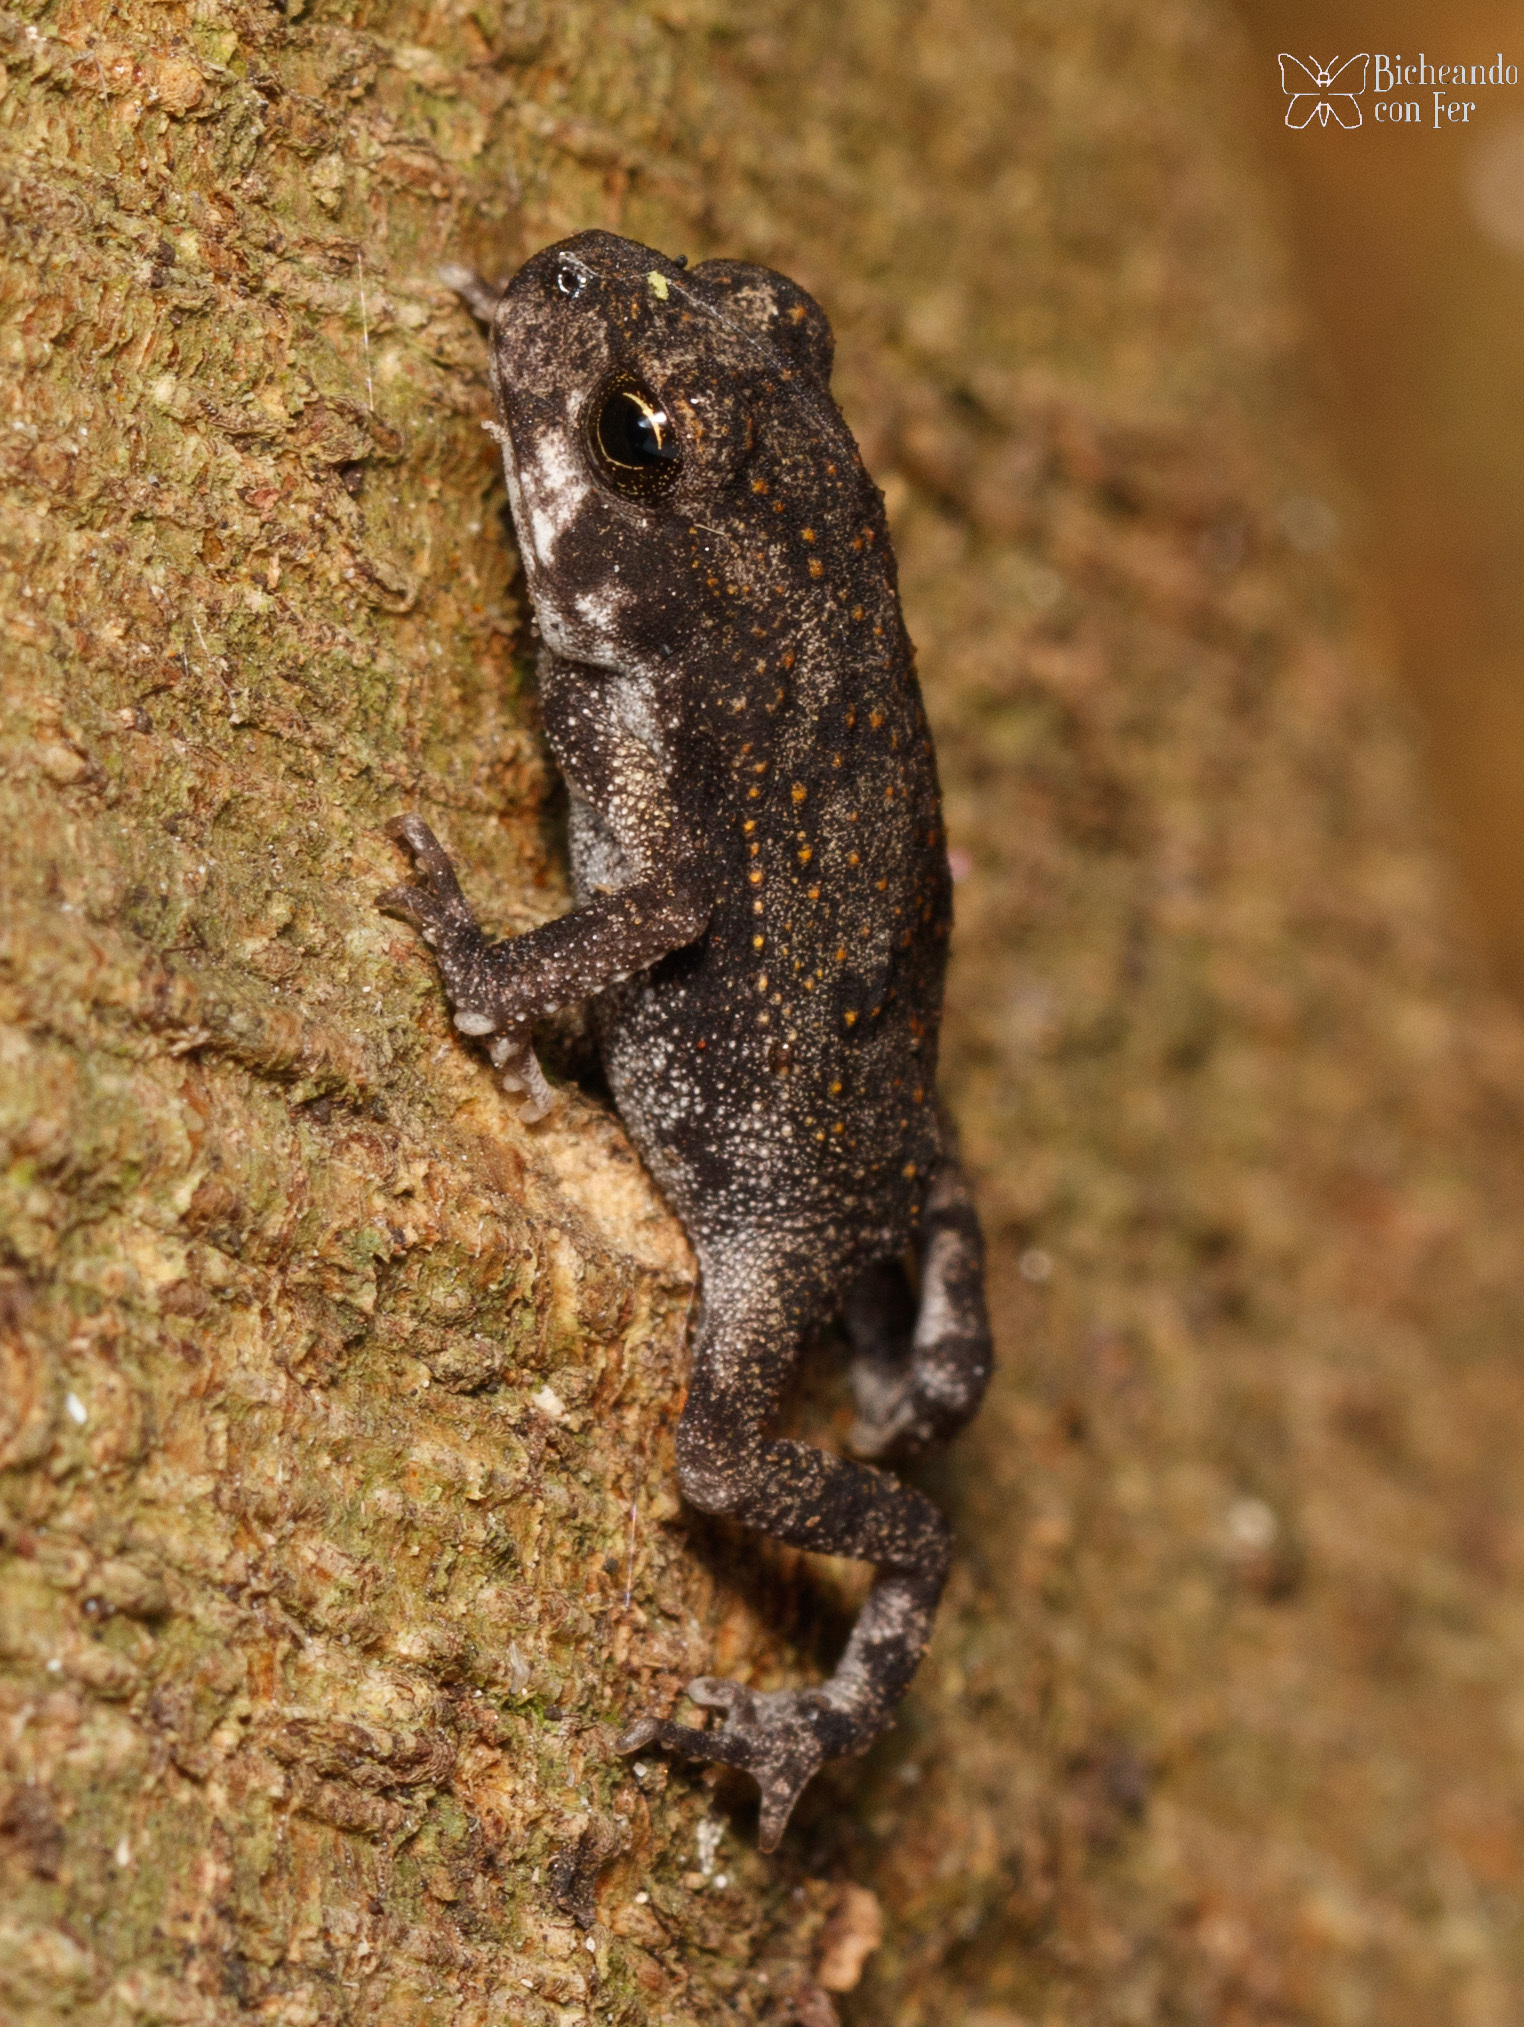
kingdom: Animalia
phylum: Chordata
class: Amphibia
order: Anura
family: Bufonidae
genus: Incilius
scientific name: Incilius valliceps
